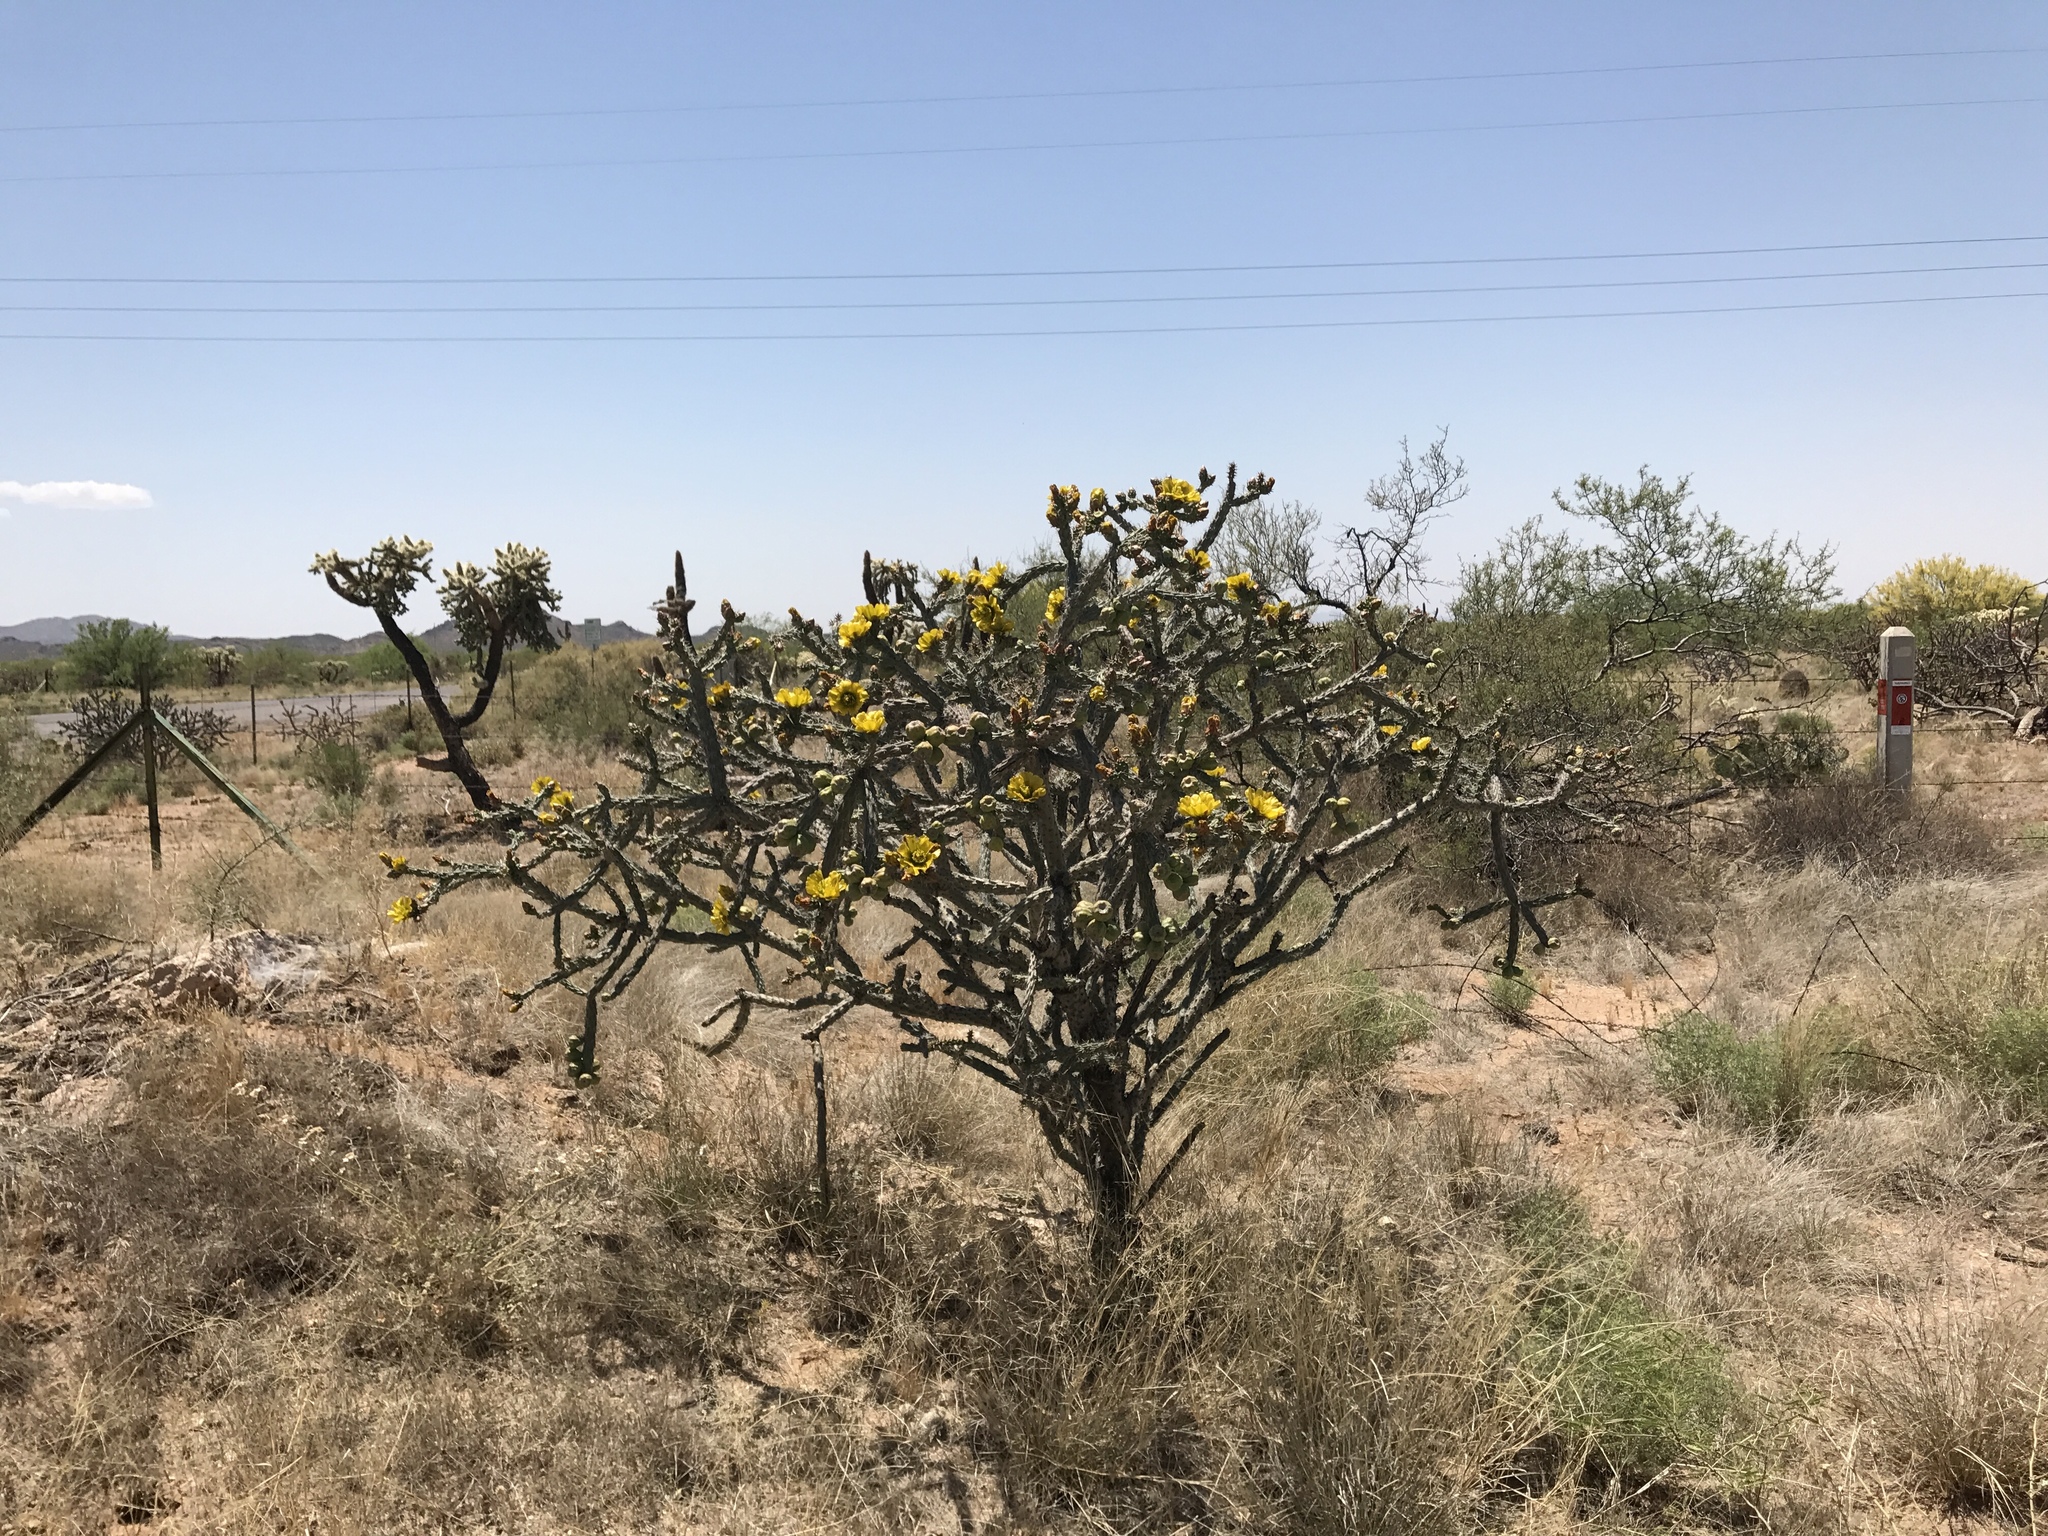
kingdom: Plantae
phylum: Tracheophyta
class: Magnoliopsida
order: Caryophyllales
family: Cactaceae
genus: Cylindropuntia
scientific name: Cylindropuntia thurberi
